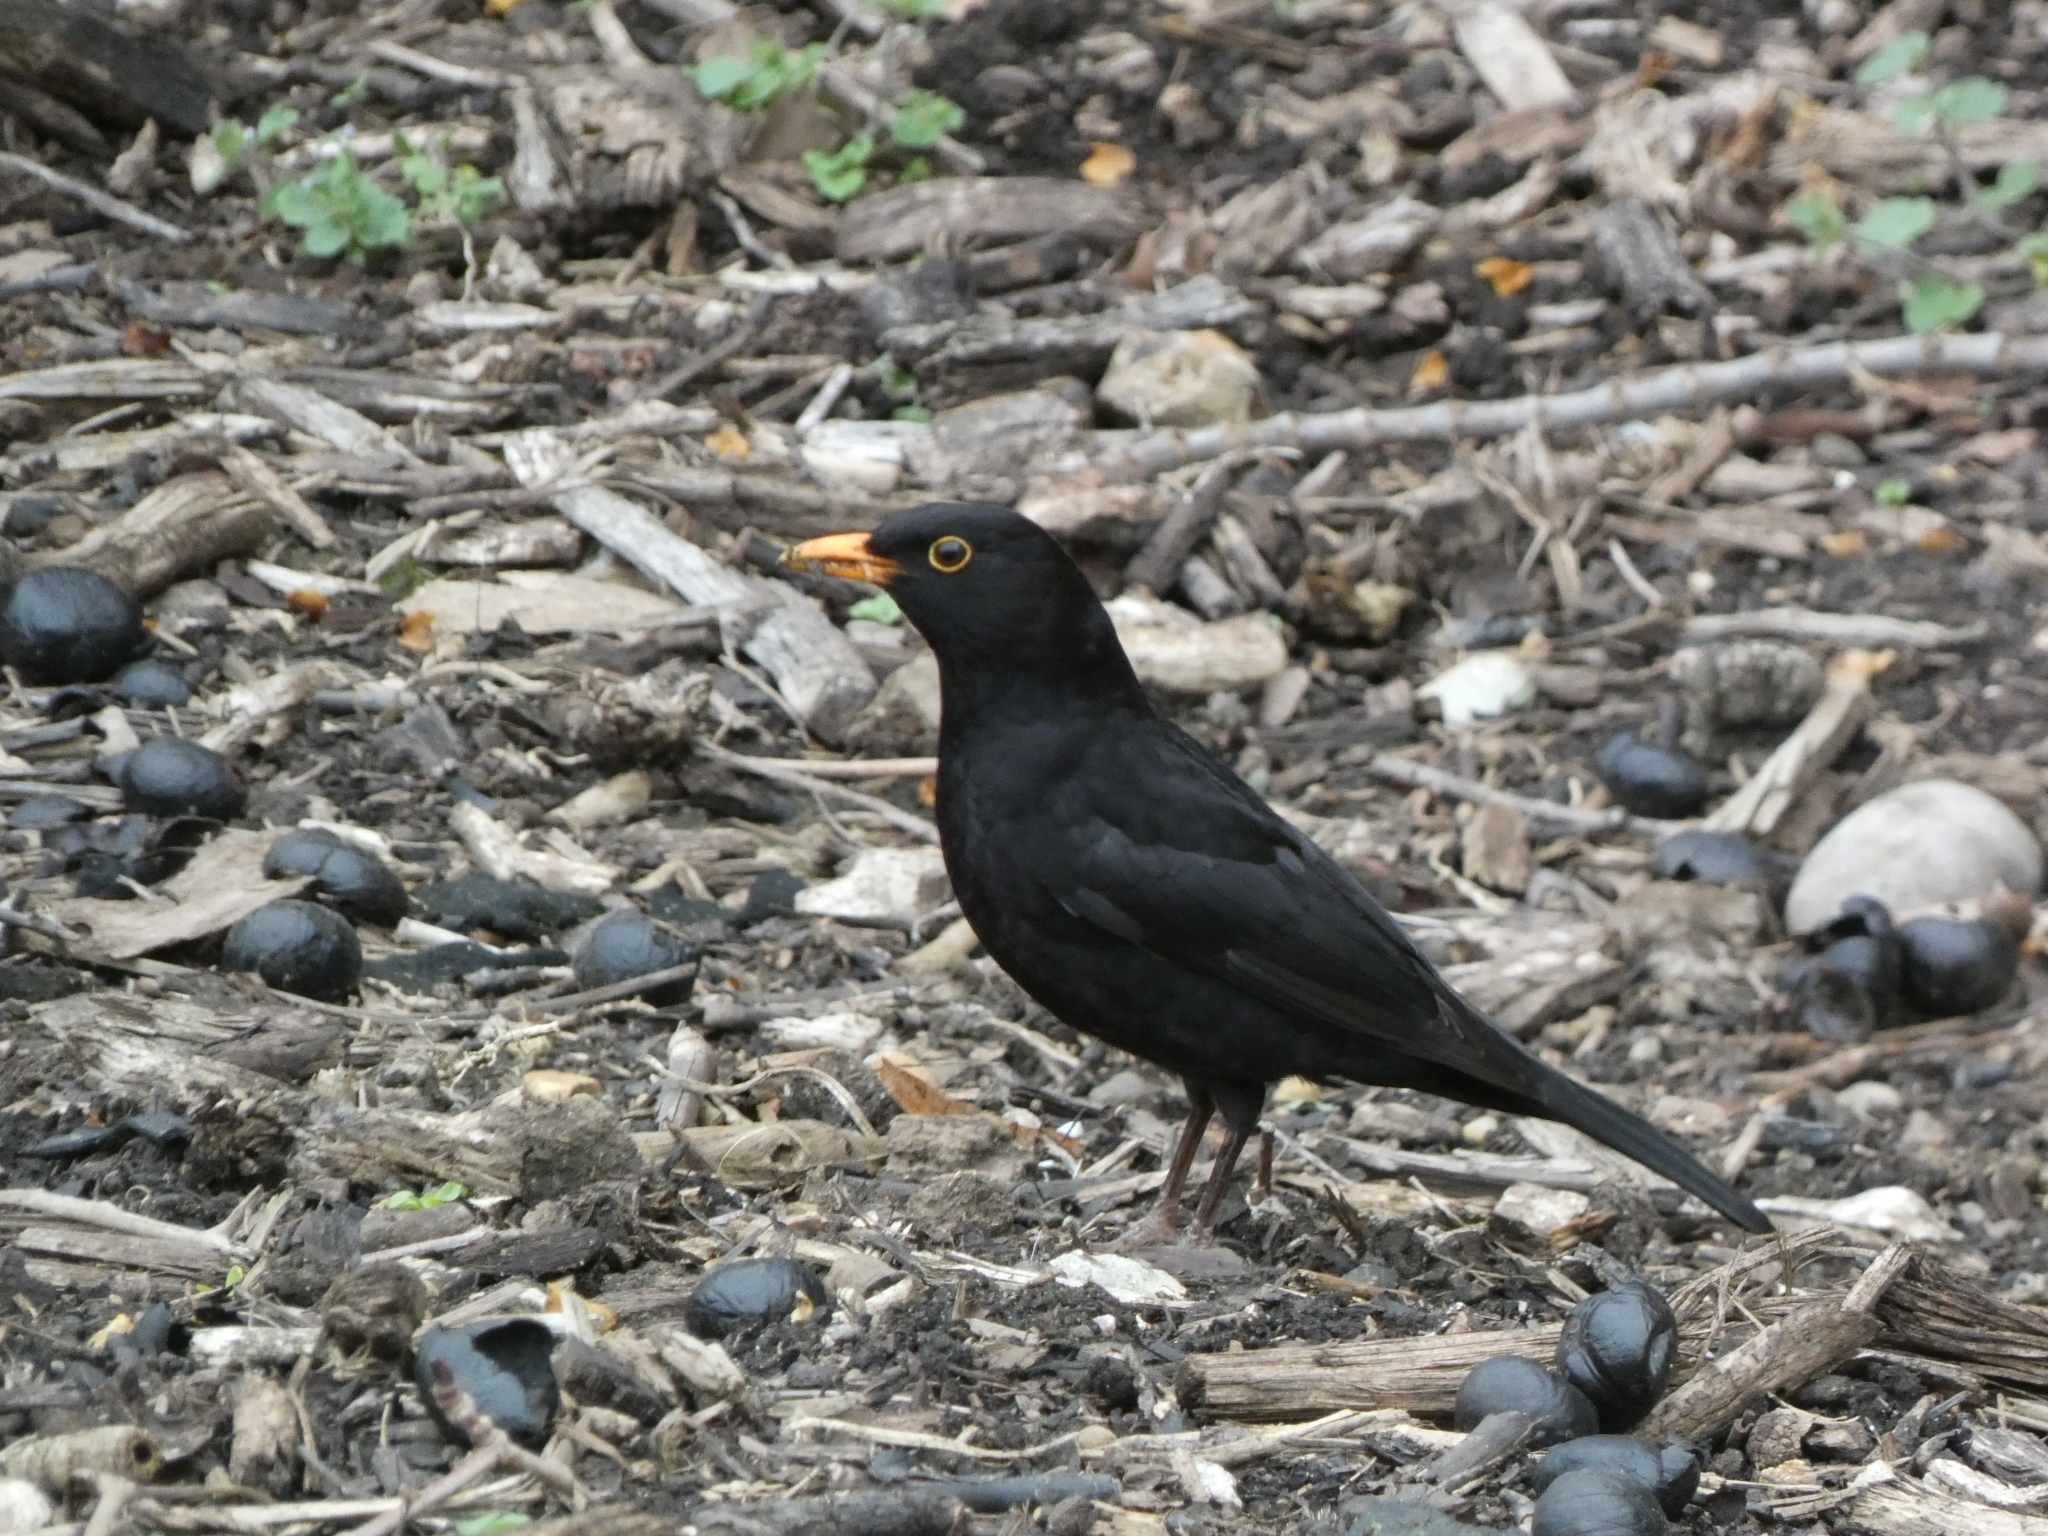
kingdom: Animalia
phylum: Chordata
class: Aves
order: Passeriformes
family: Turdidae
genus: Turdus
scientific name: Turdus merula
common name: Common blackbird
